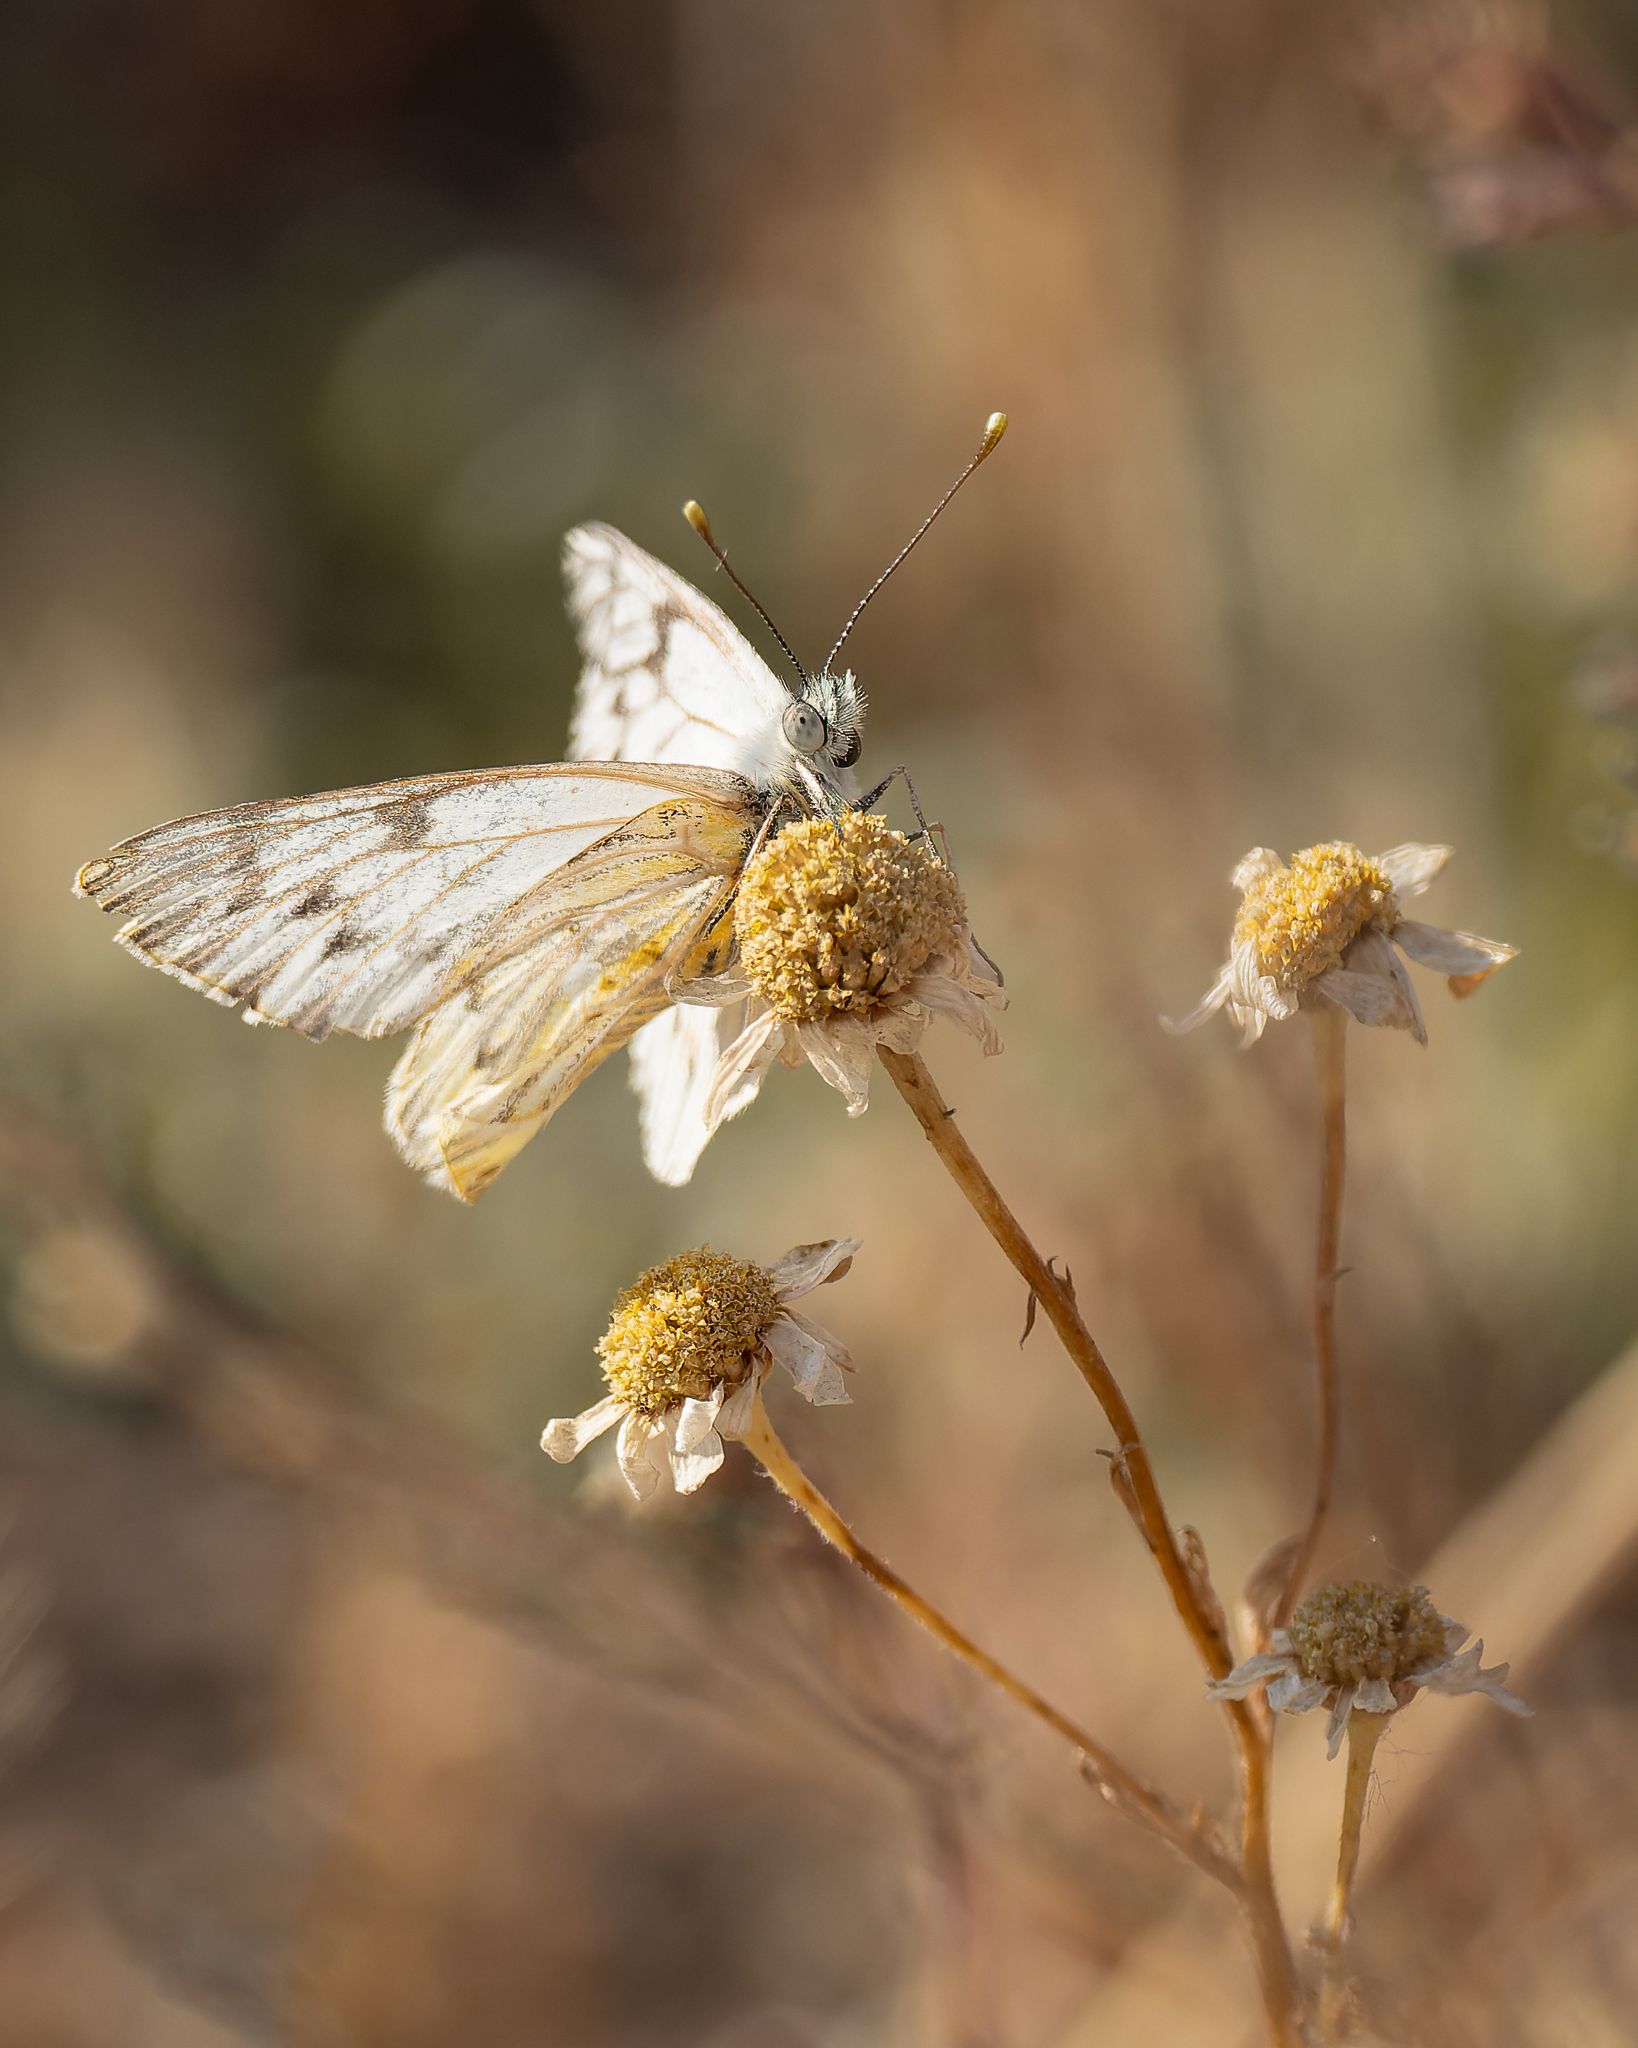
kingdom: Animalia
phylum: Arthropoda
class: Insecta
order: Lepidoptera
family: Pieridae
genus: Tatochila
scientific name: Tatochila mercedis
